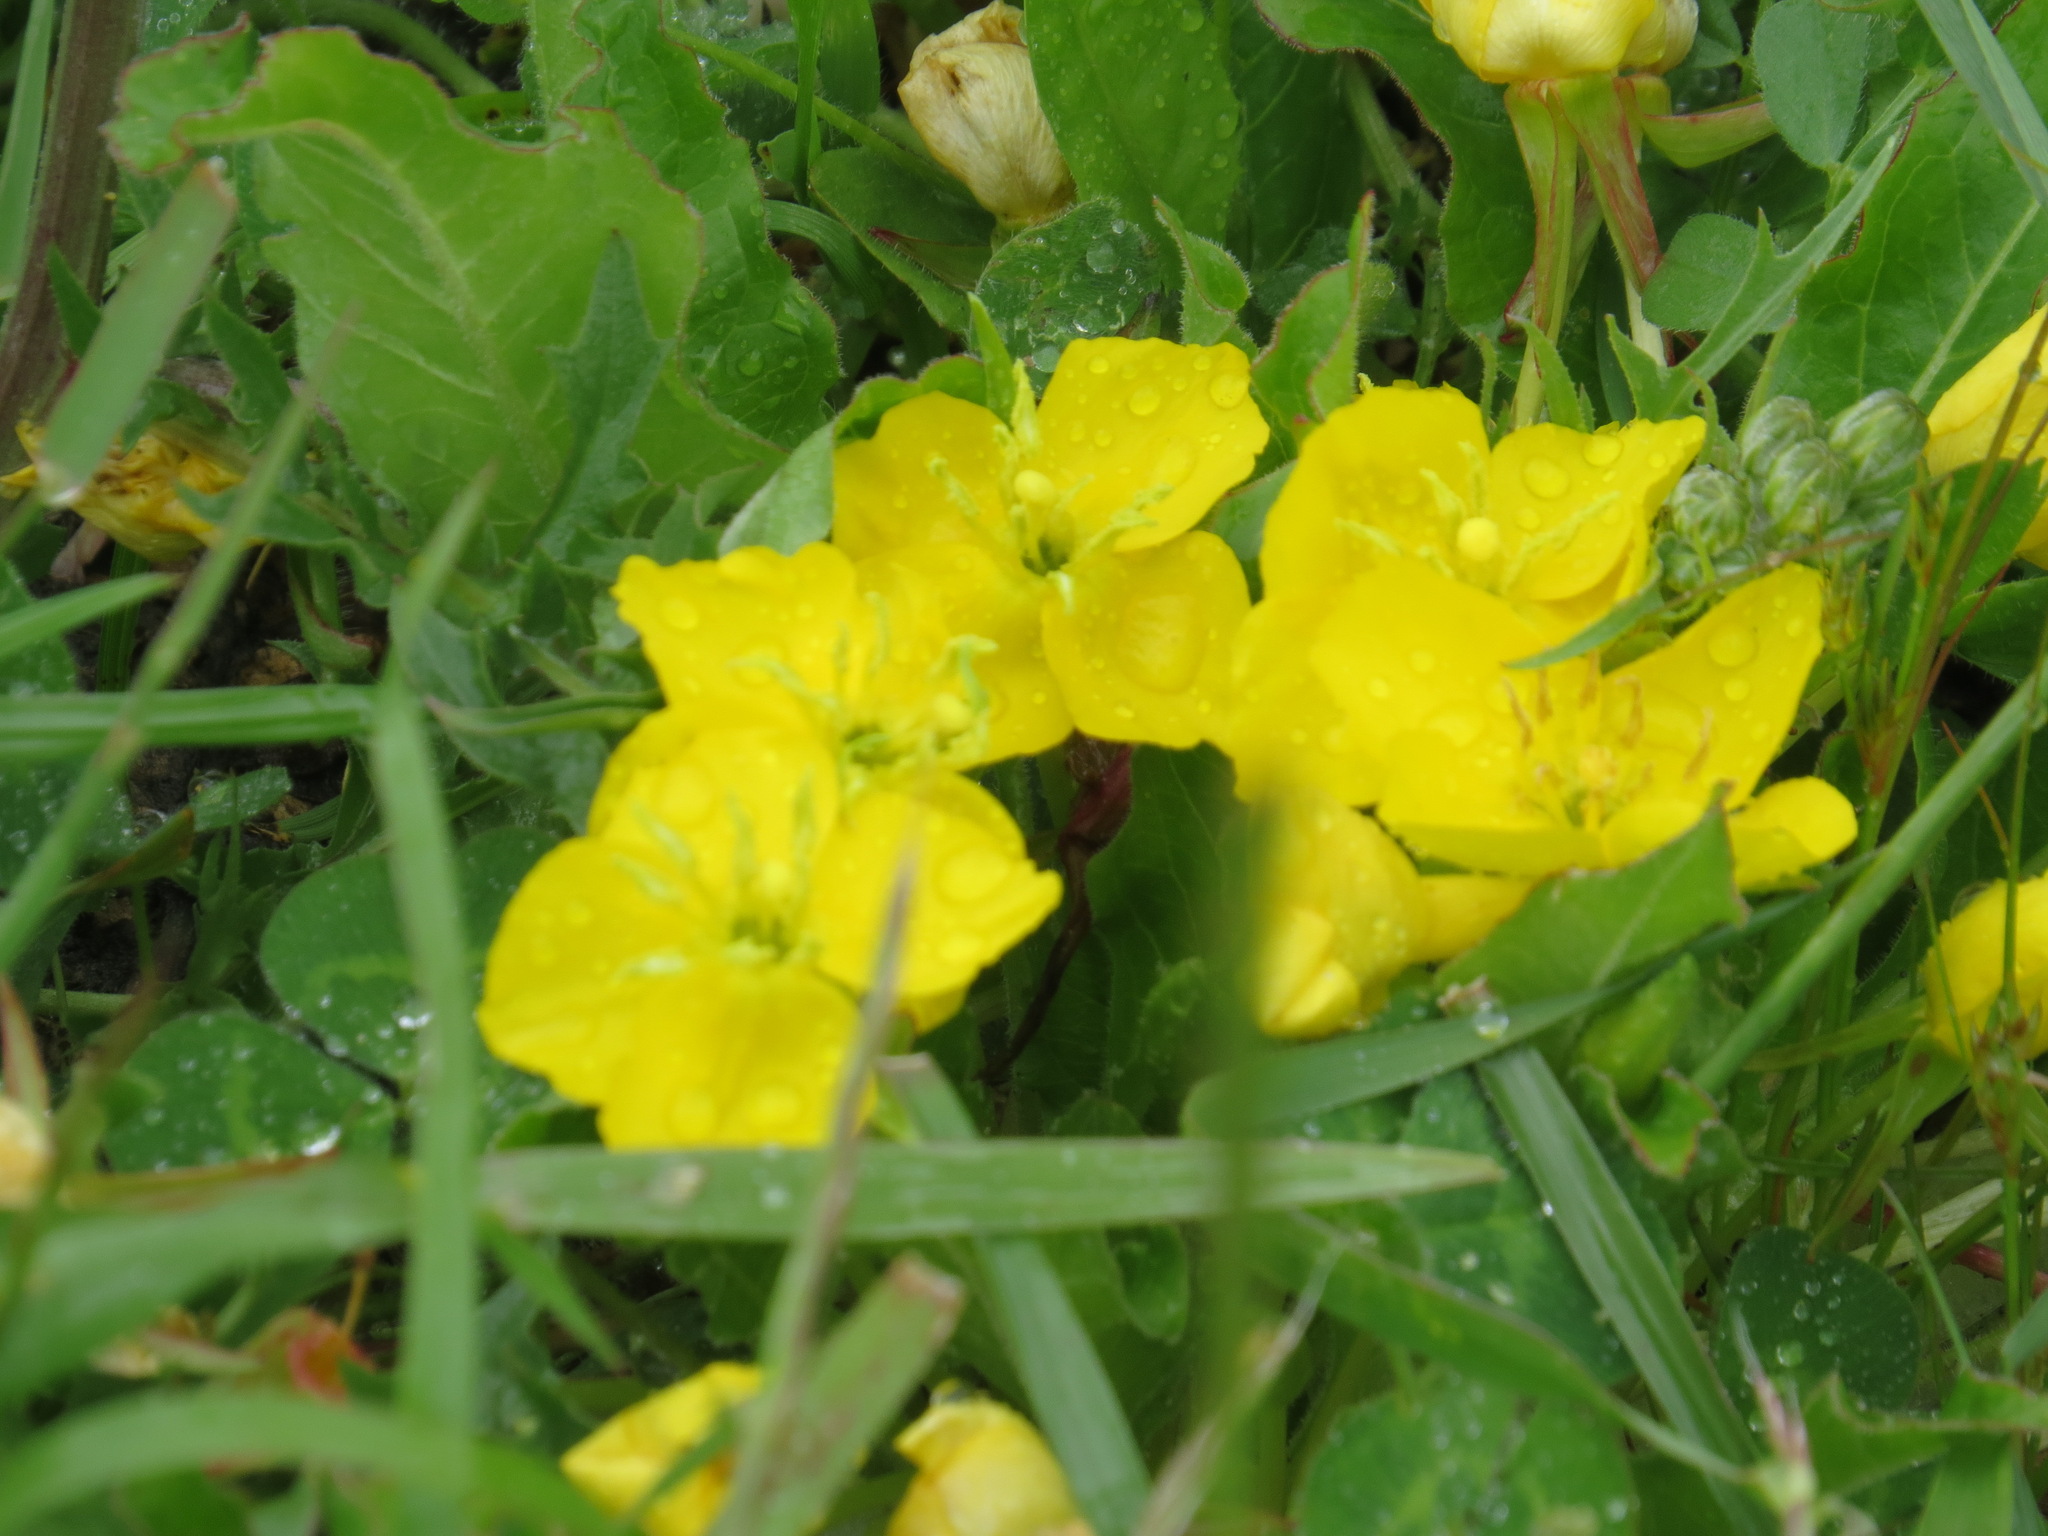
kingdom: Plantae
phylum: Tracheophyta
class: Magnoliopsida
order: Myrtales
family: Onagraceae
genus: Taraxia
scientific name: Taraxia ovata
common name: Goldeneggs
